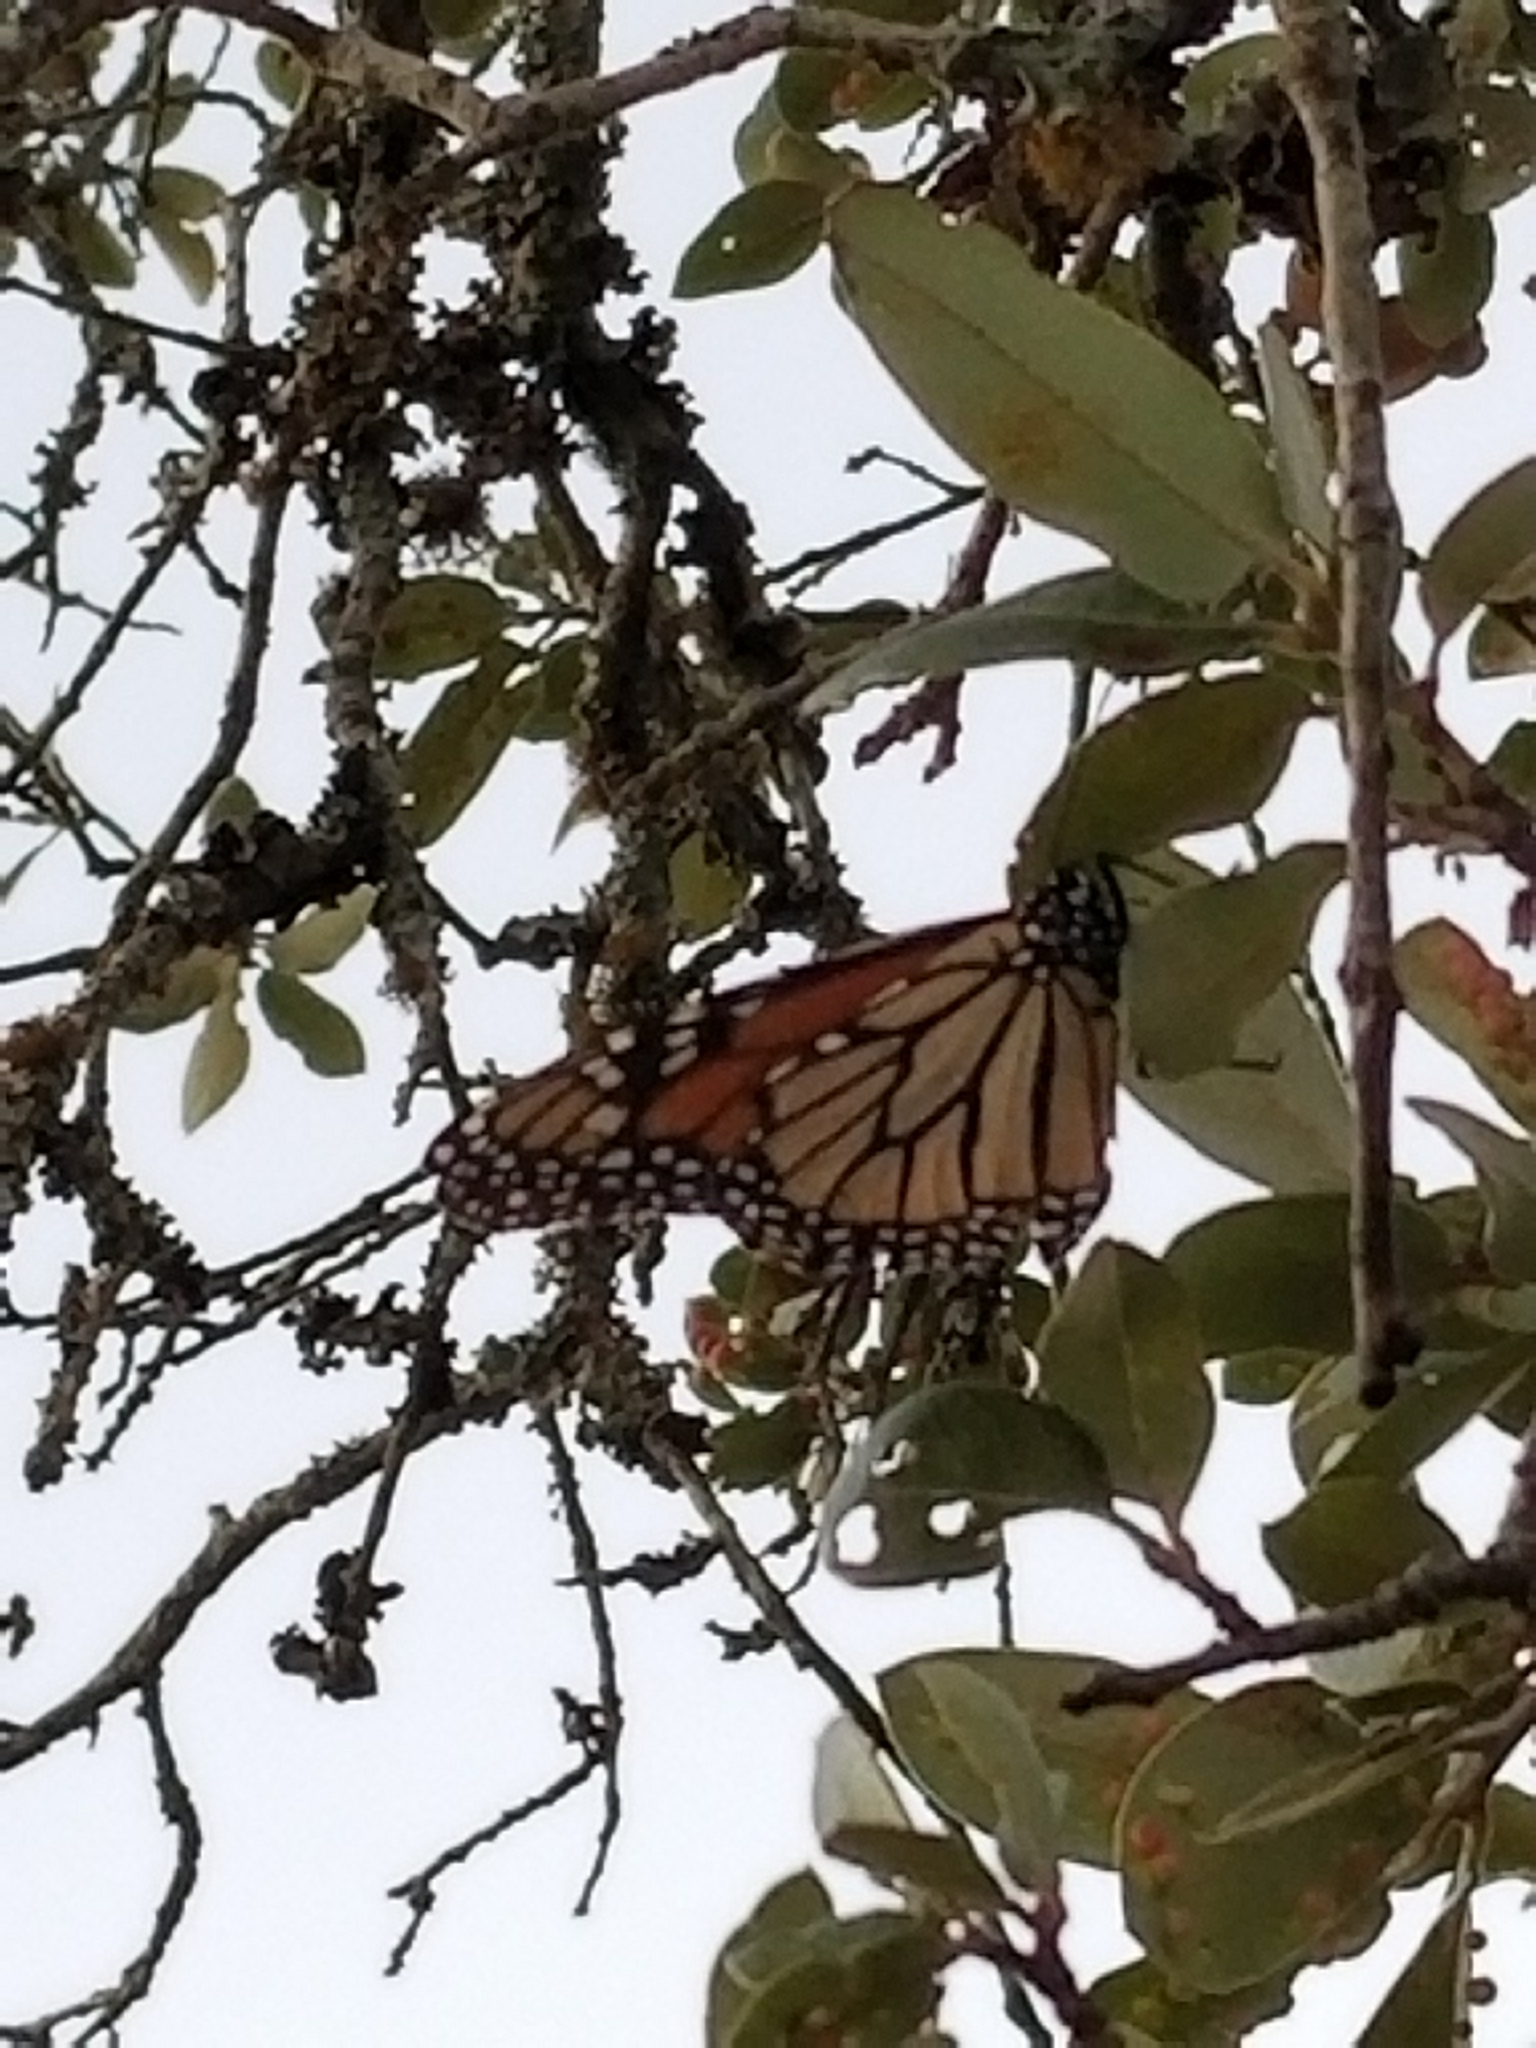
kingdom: Animalia
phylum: Arthropoda
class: Insecta
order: Lepidoptera
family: Nymphalidae
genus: Danaus
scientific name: Danaus plexippus
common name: Monarch
